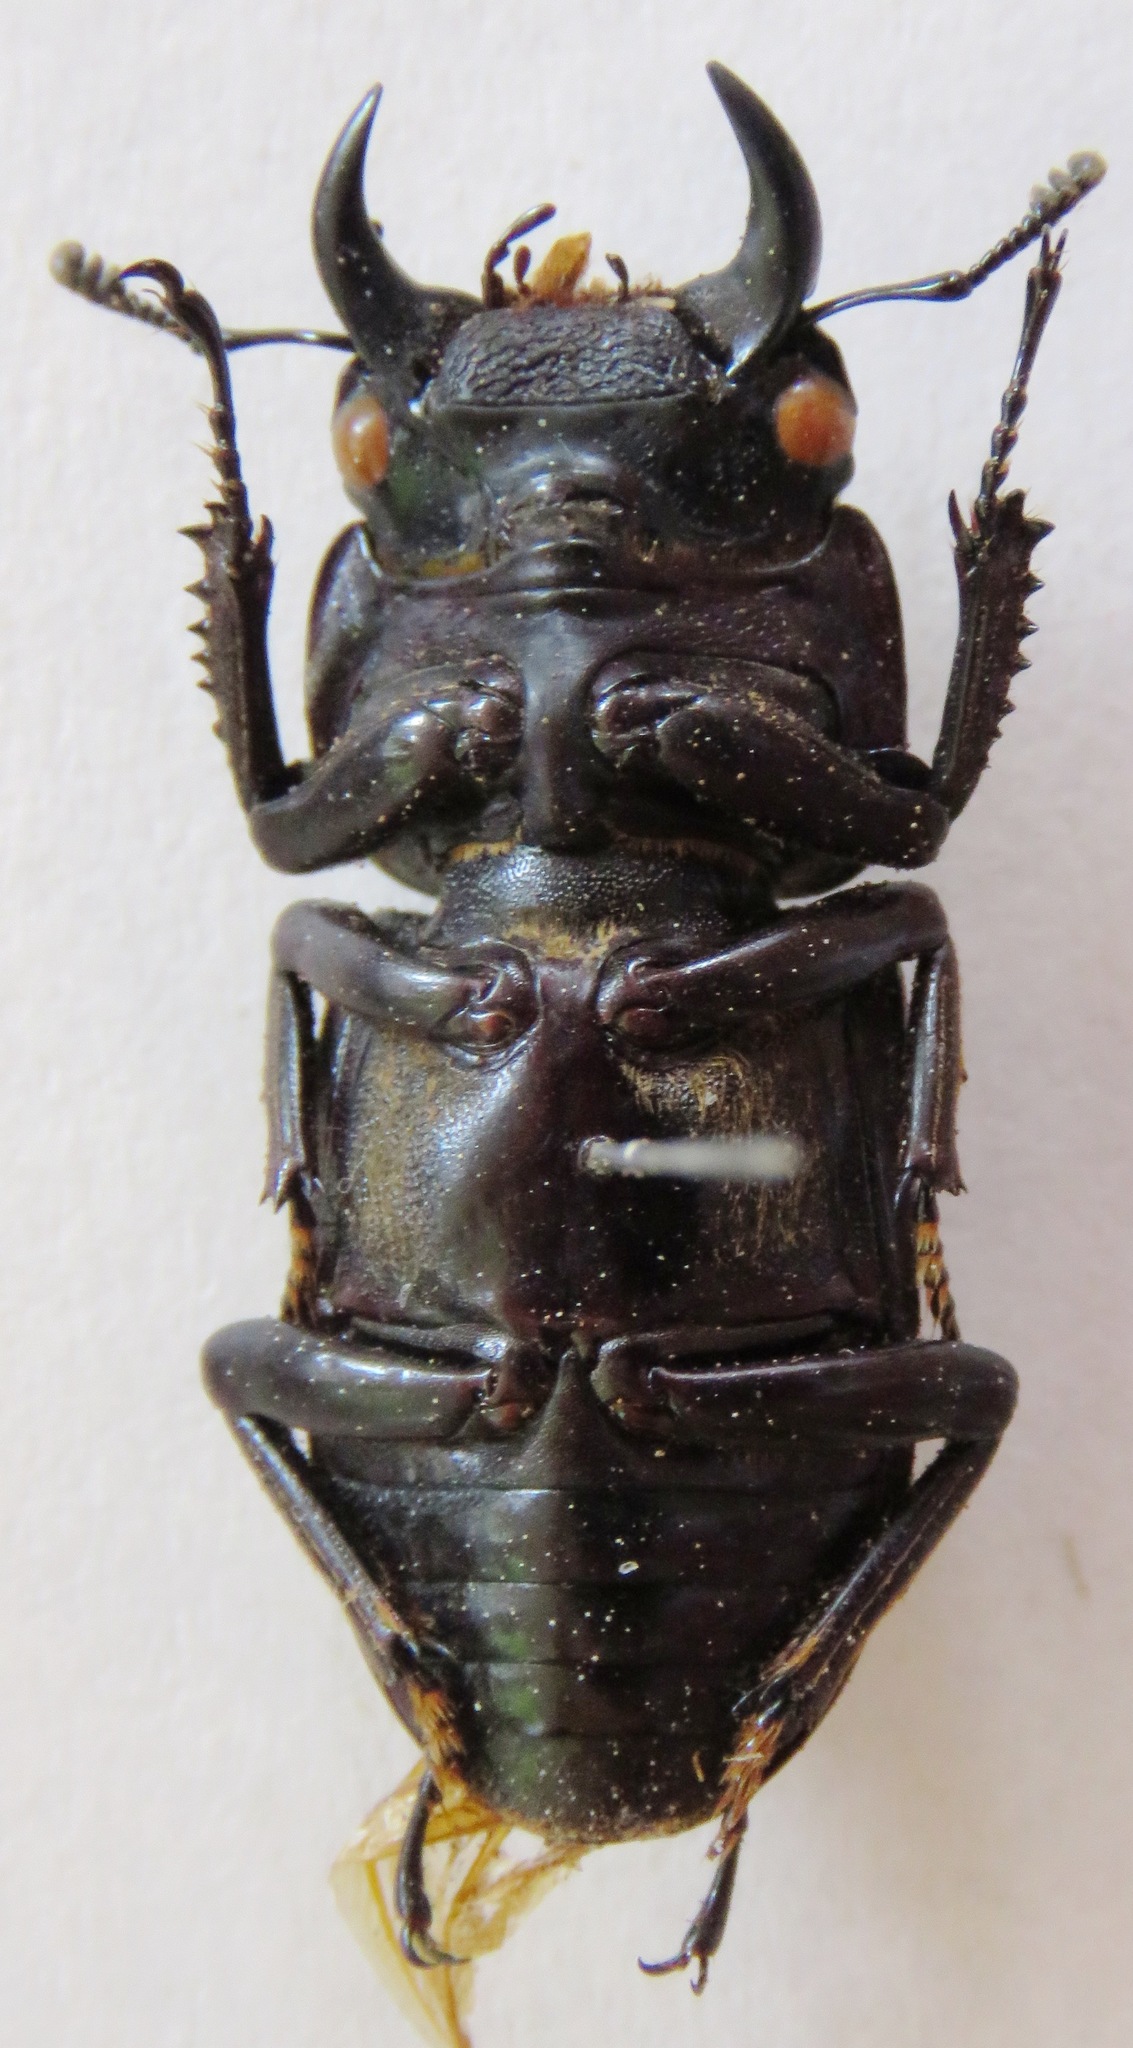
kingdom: Animalia
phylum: Arthropoda
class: Insecta
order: Coleoptera
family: Lucanidae
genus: Dorcus
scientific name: Dorcus yaksha
